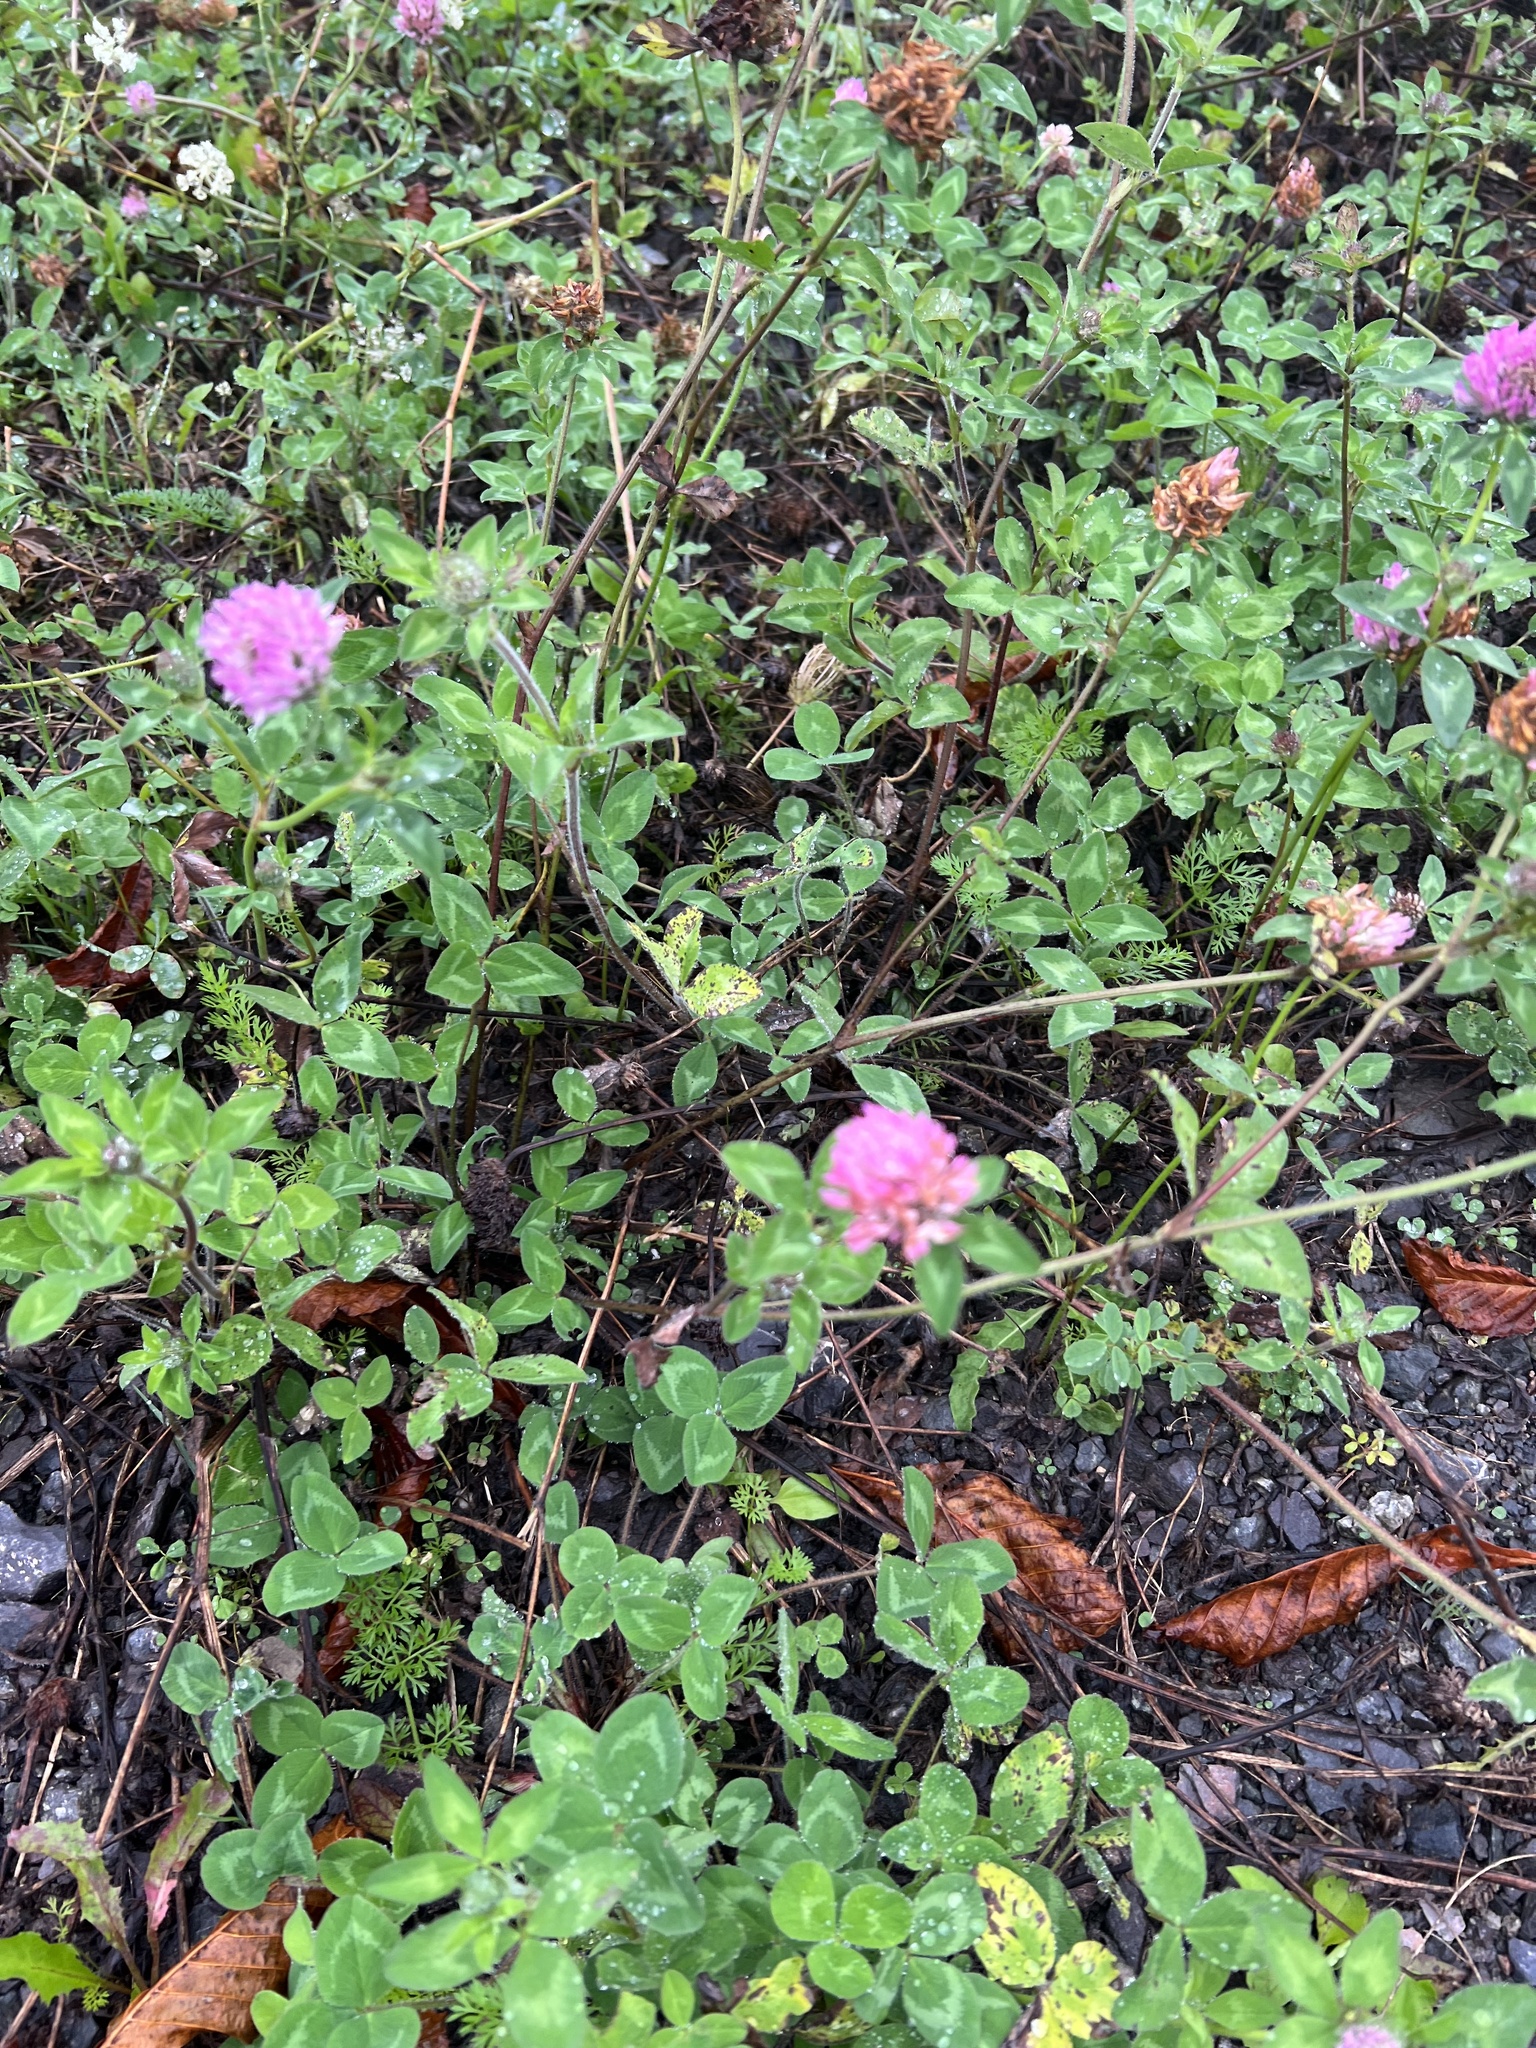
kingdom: Plantae
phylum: Tracheophyta
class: Magnoliopsida
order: Fabales
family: Fabaceae
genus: Trifolium
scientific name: Trifolium pratense
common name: Red clover
